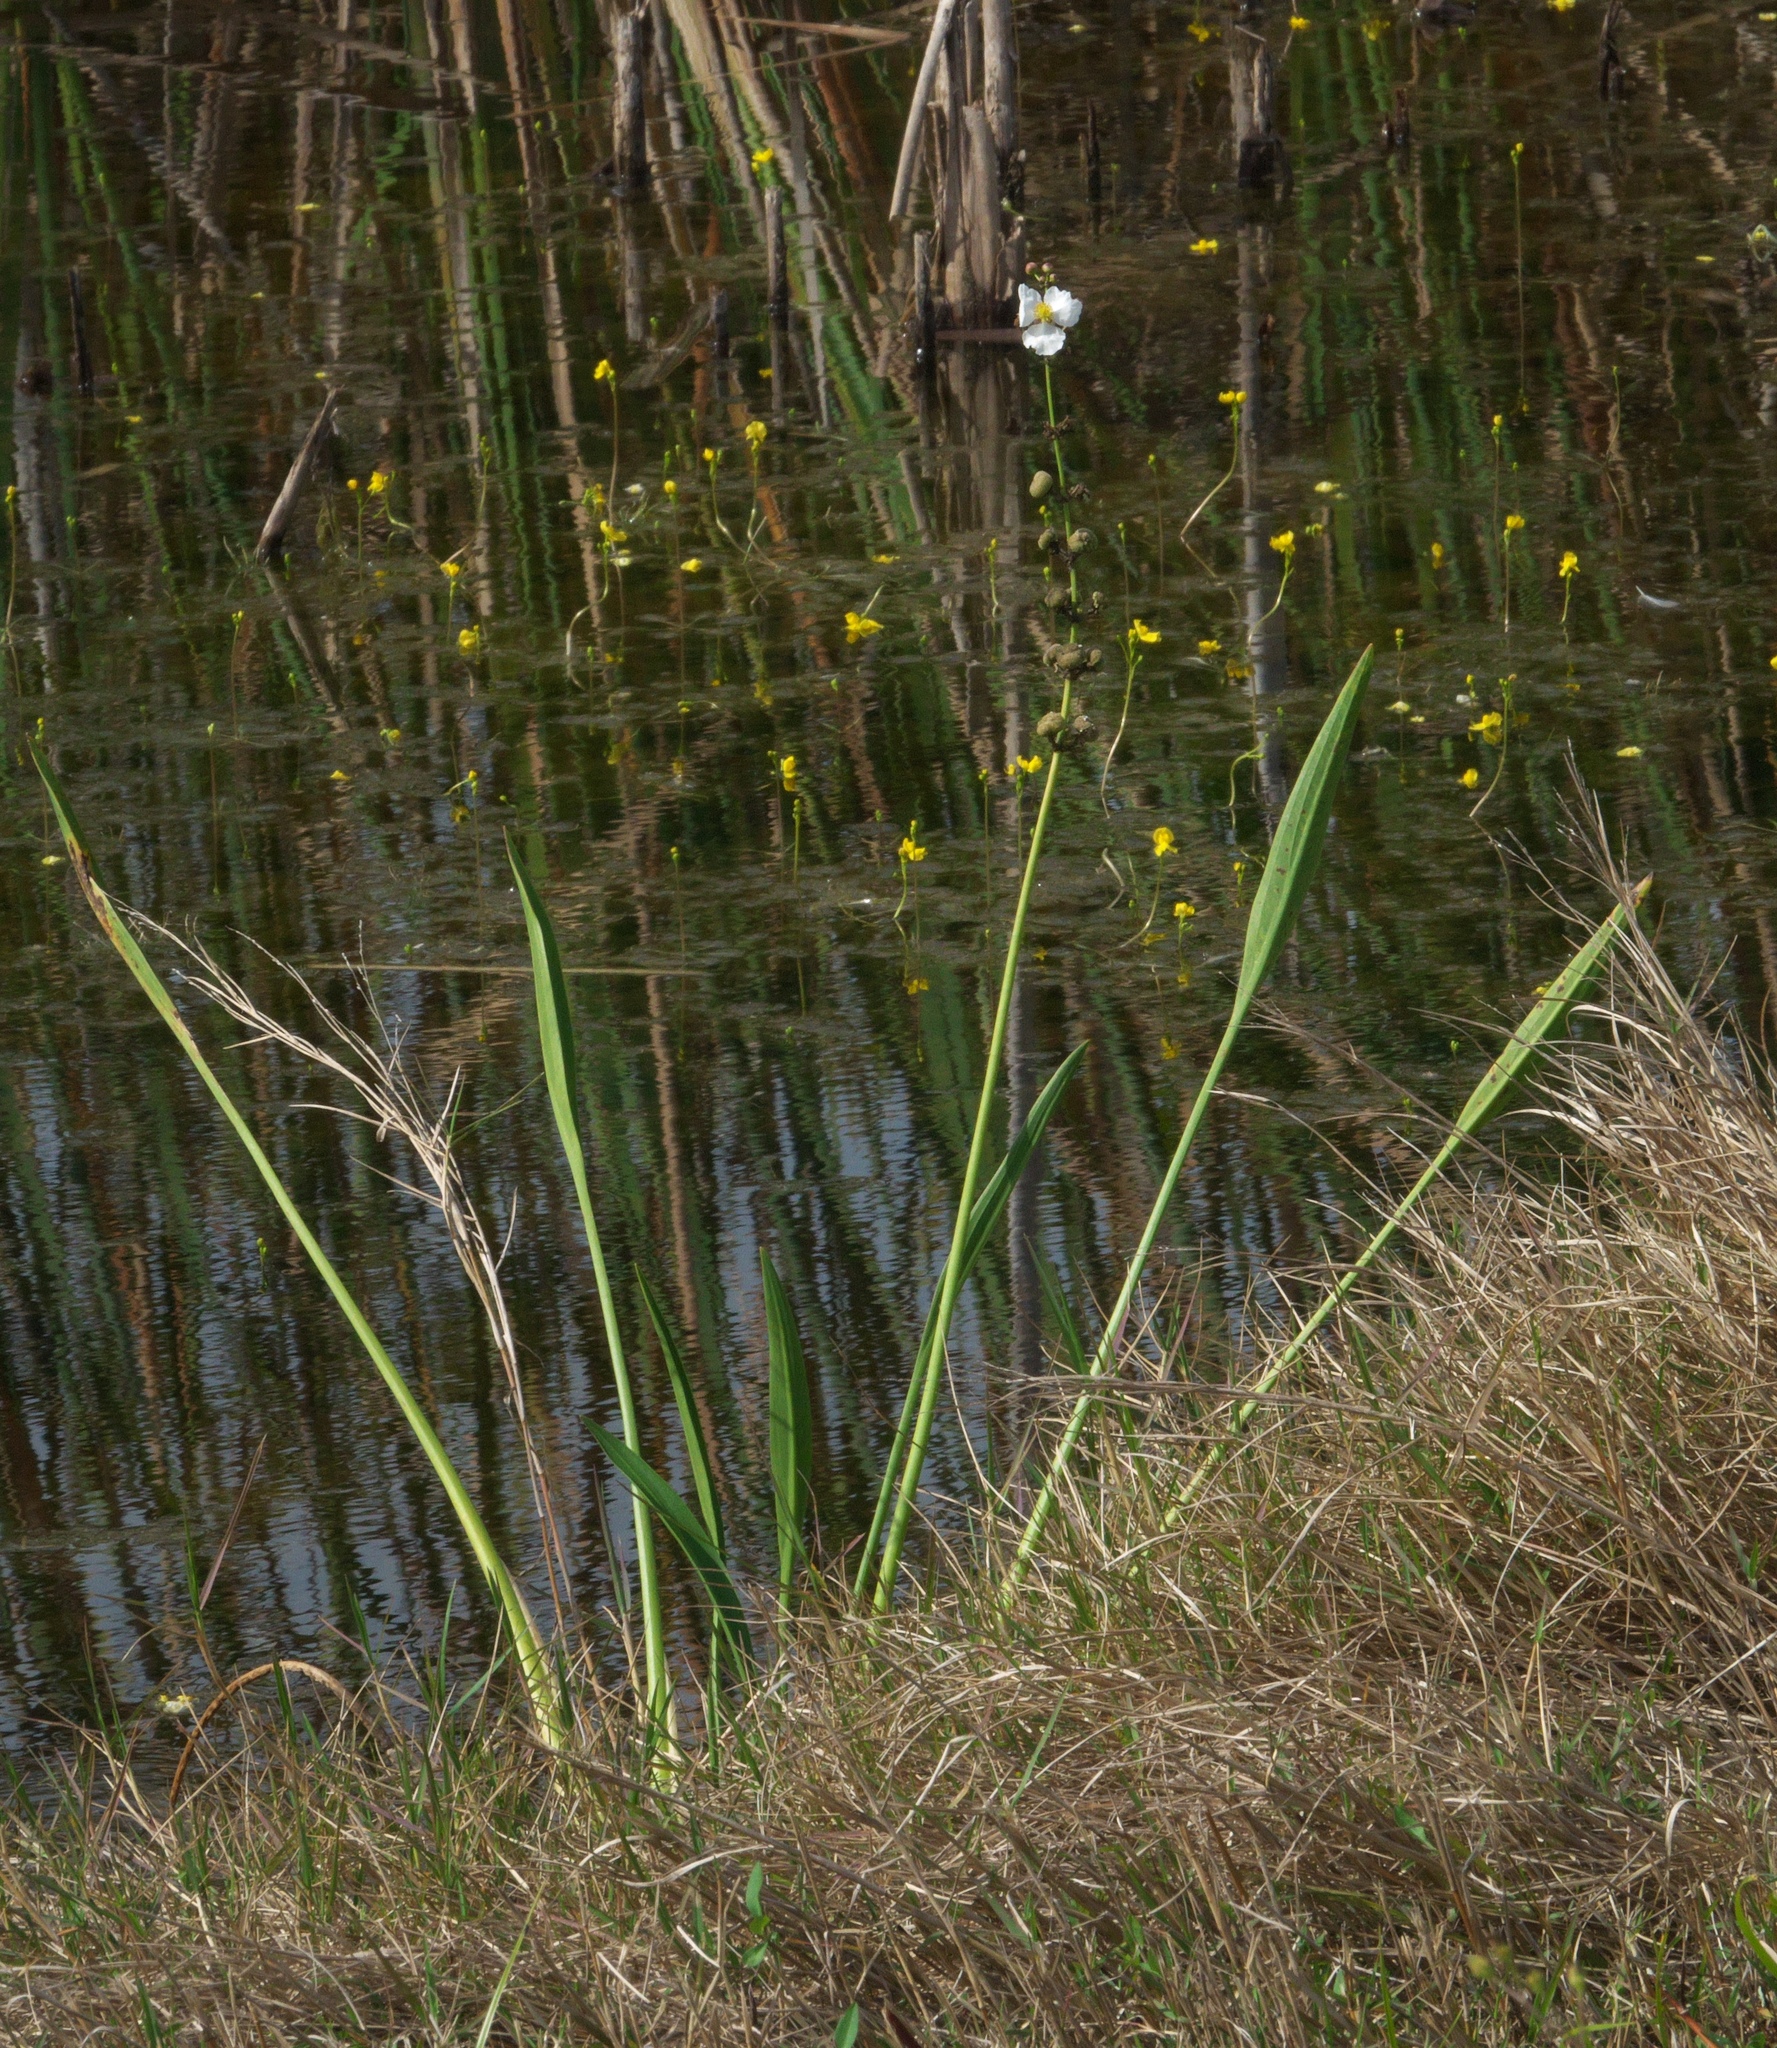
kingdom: Plantae
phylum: Tracheophyta
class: Liliopsida
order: Alismatales
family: Alismataceae
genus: Sagittaria
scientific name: Sagittaria lancifolia
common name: Lance-leaf arrowhead
